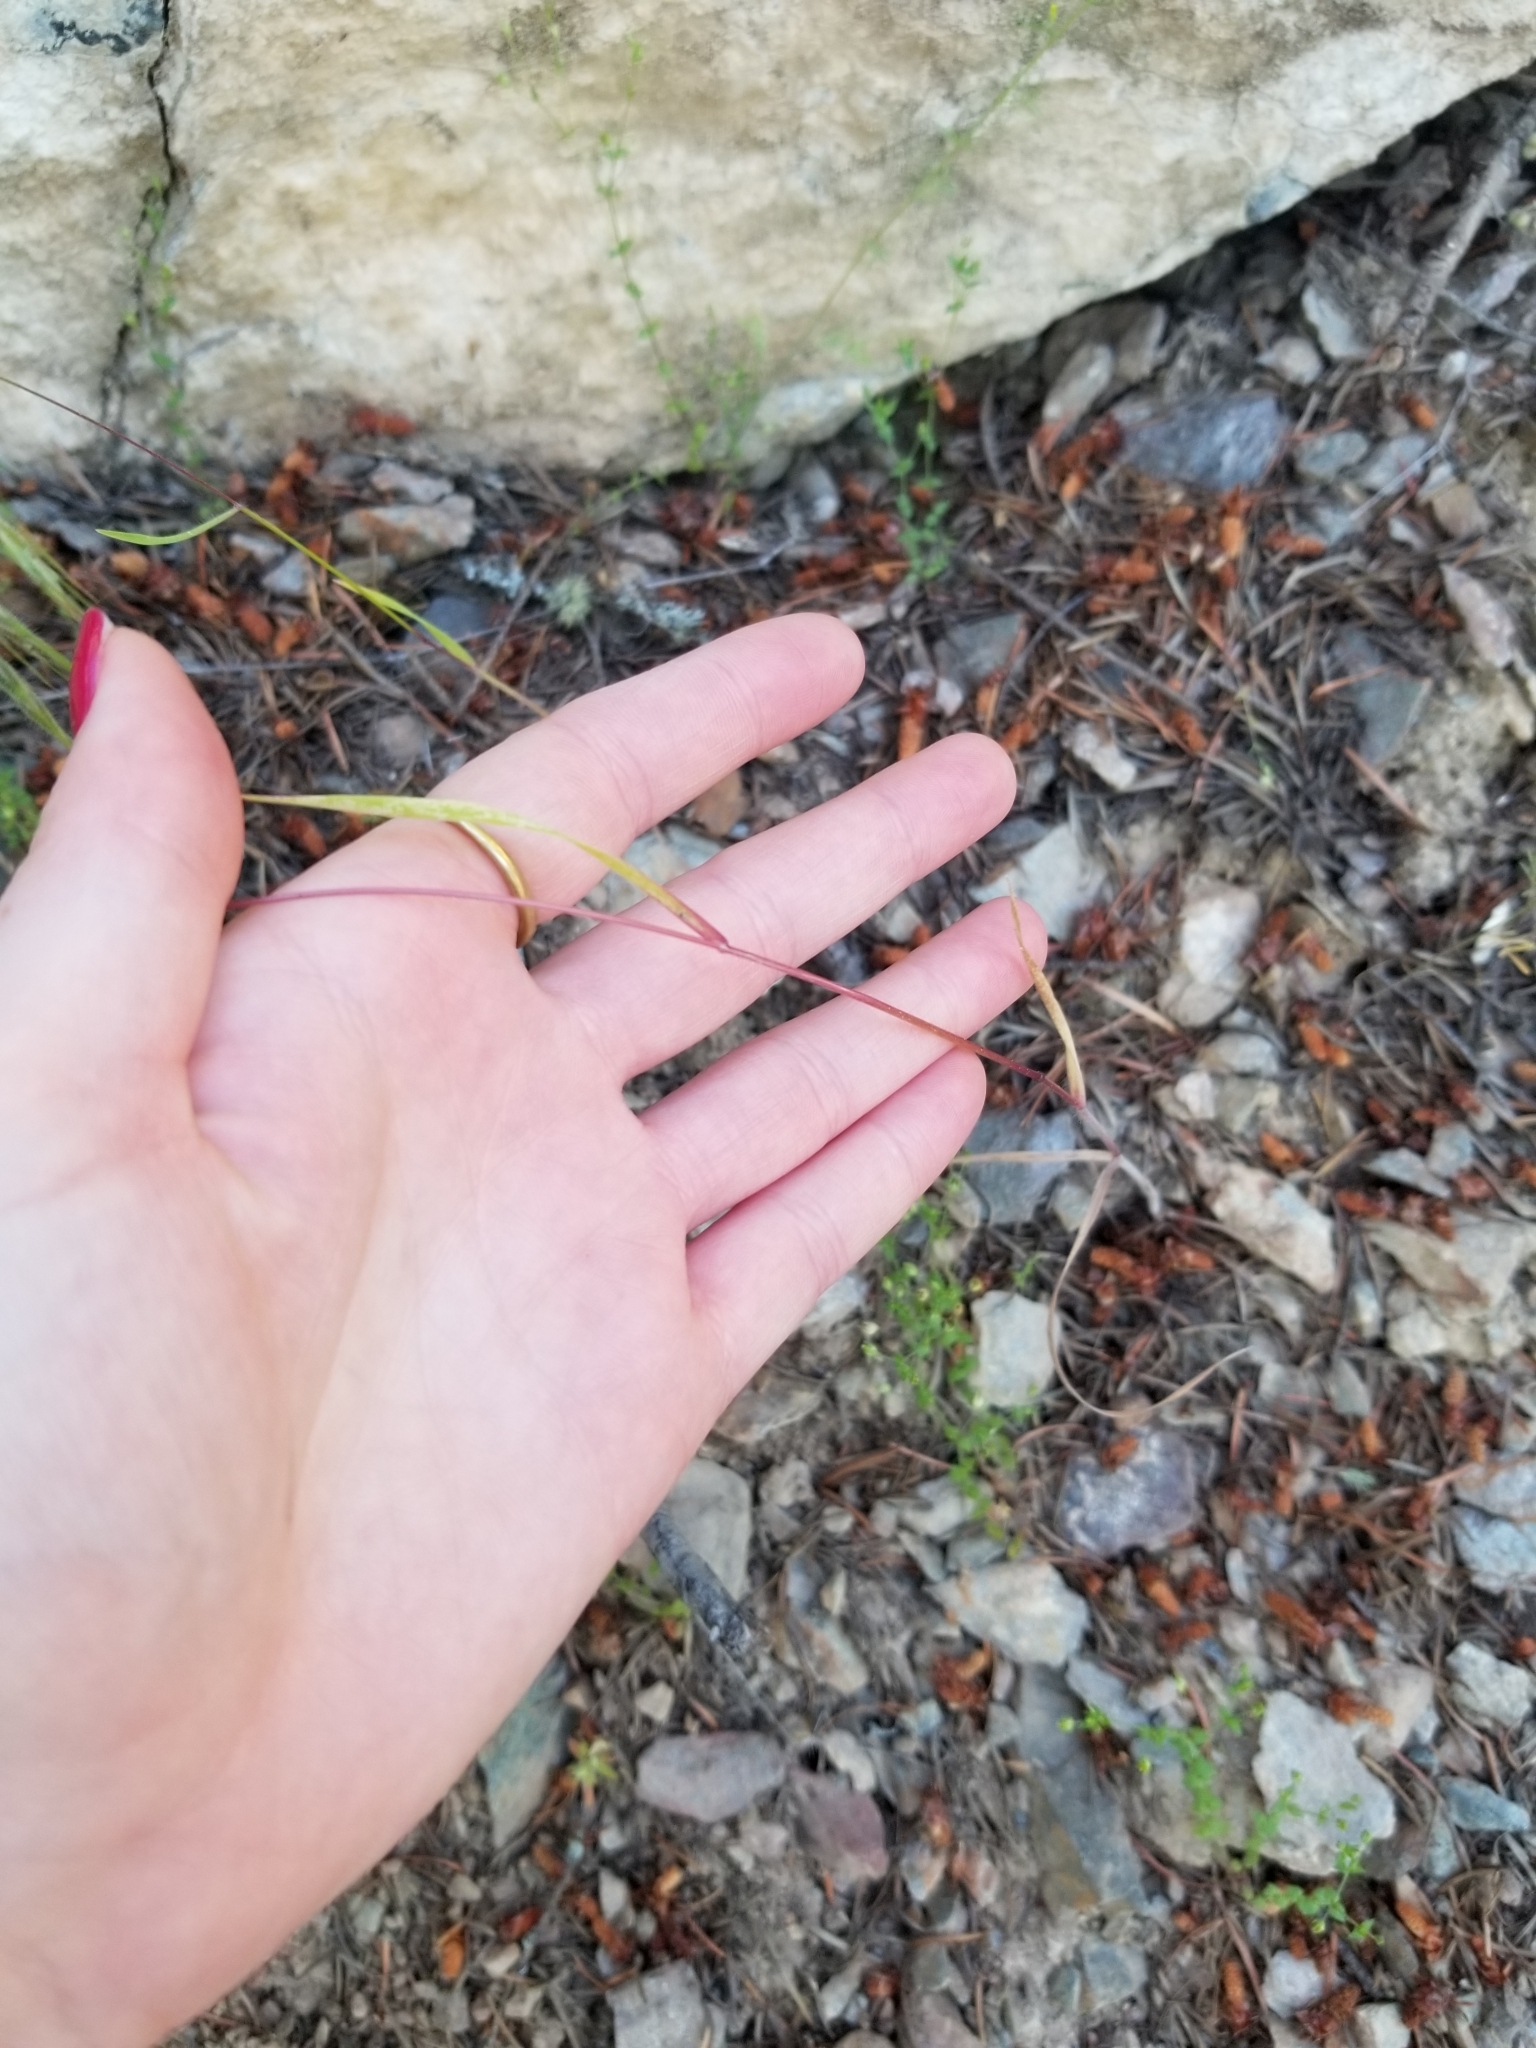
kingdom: Plantae
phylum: Tracheophyta
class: Liliopsida
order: Poales
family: Poaceae
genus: Bromus
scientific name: Bromus tectorum
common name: Cheatgrass
